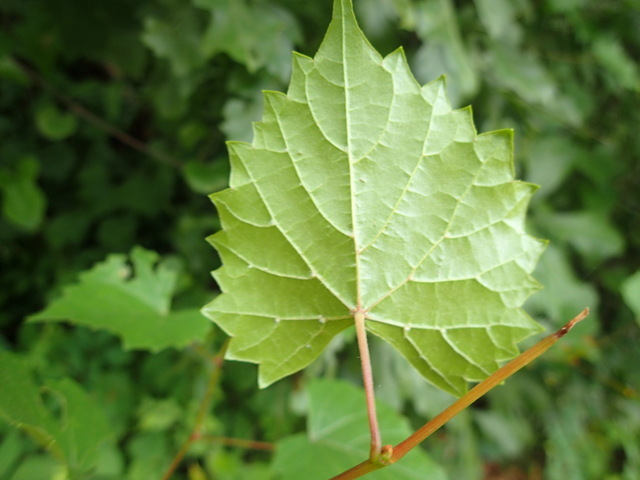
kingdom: Plantae
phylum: Tracheophyta
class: Magnoliopsida
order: Vitales
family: Vitaceae
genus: Vitis
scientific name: Vitis rotundifolia
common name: Muscadine grape
